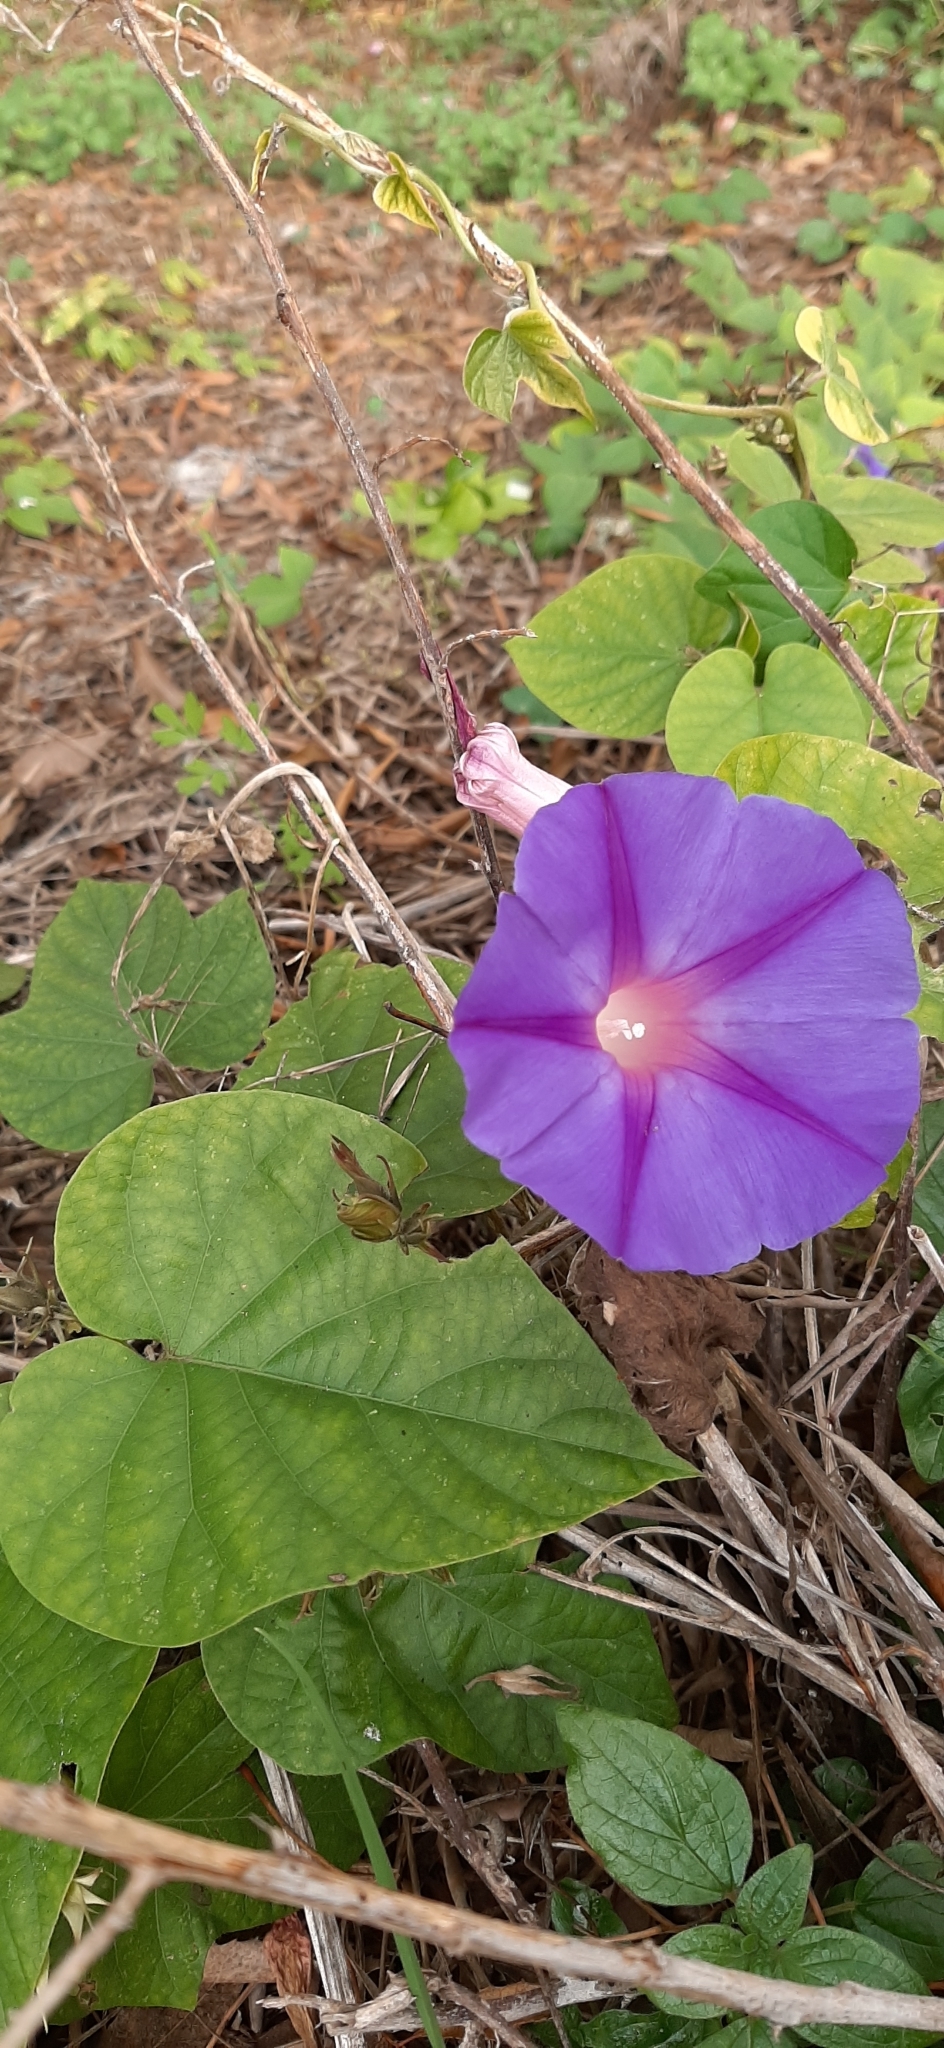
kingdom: Plantae
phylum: Tracheophyta
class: Magnoliopsida
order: Solanales
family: Convolvulaceae
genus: Ipomoea
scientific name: Ipomoea indica
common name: Blue dawnflower
